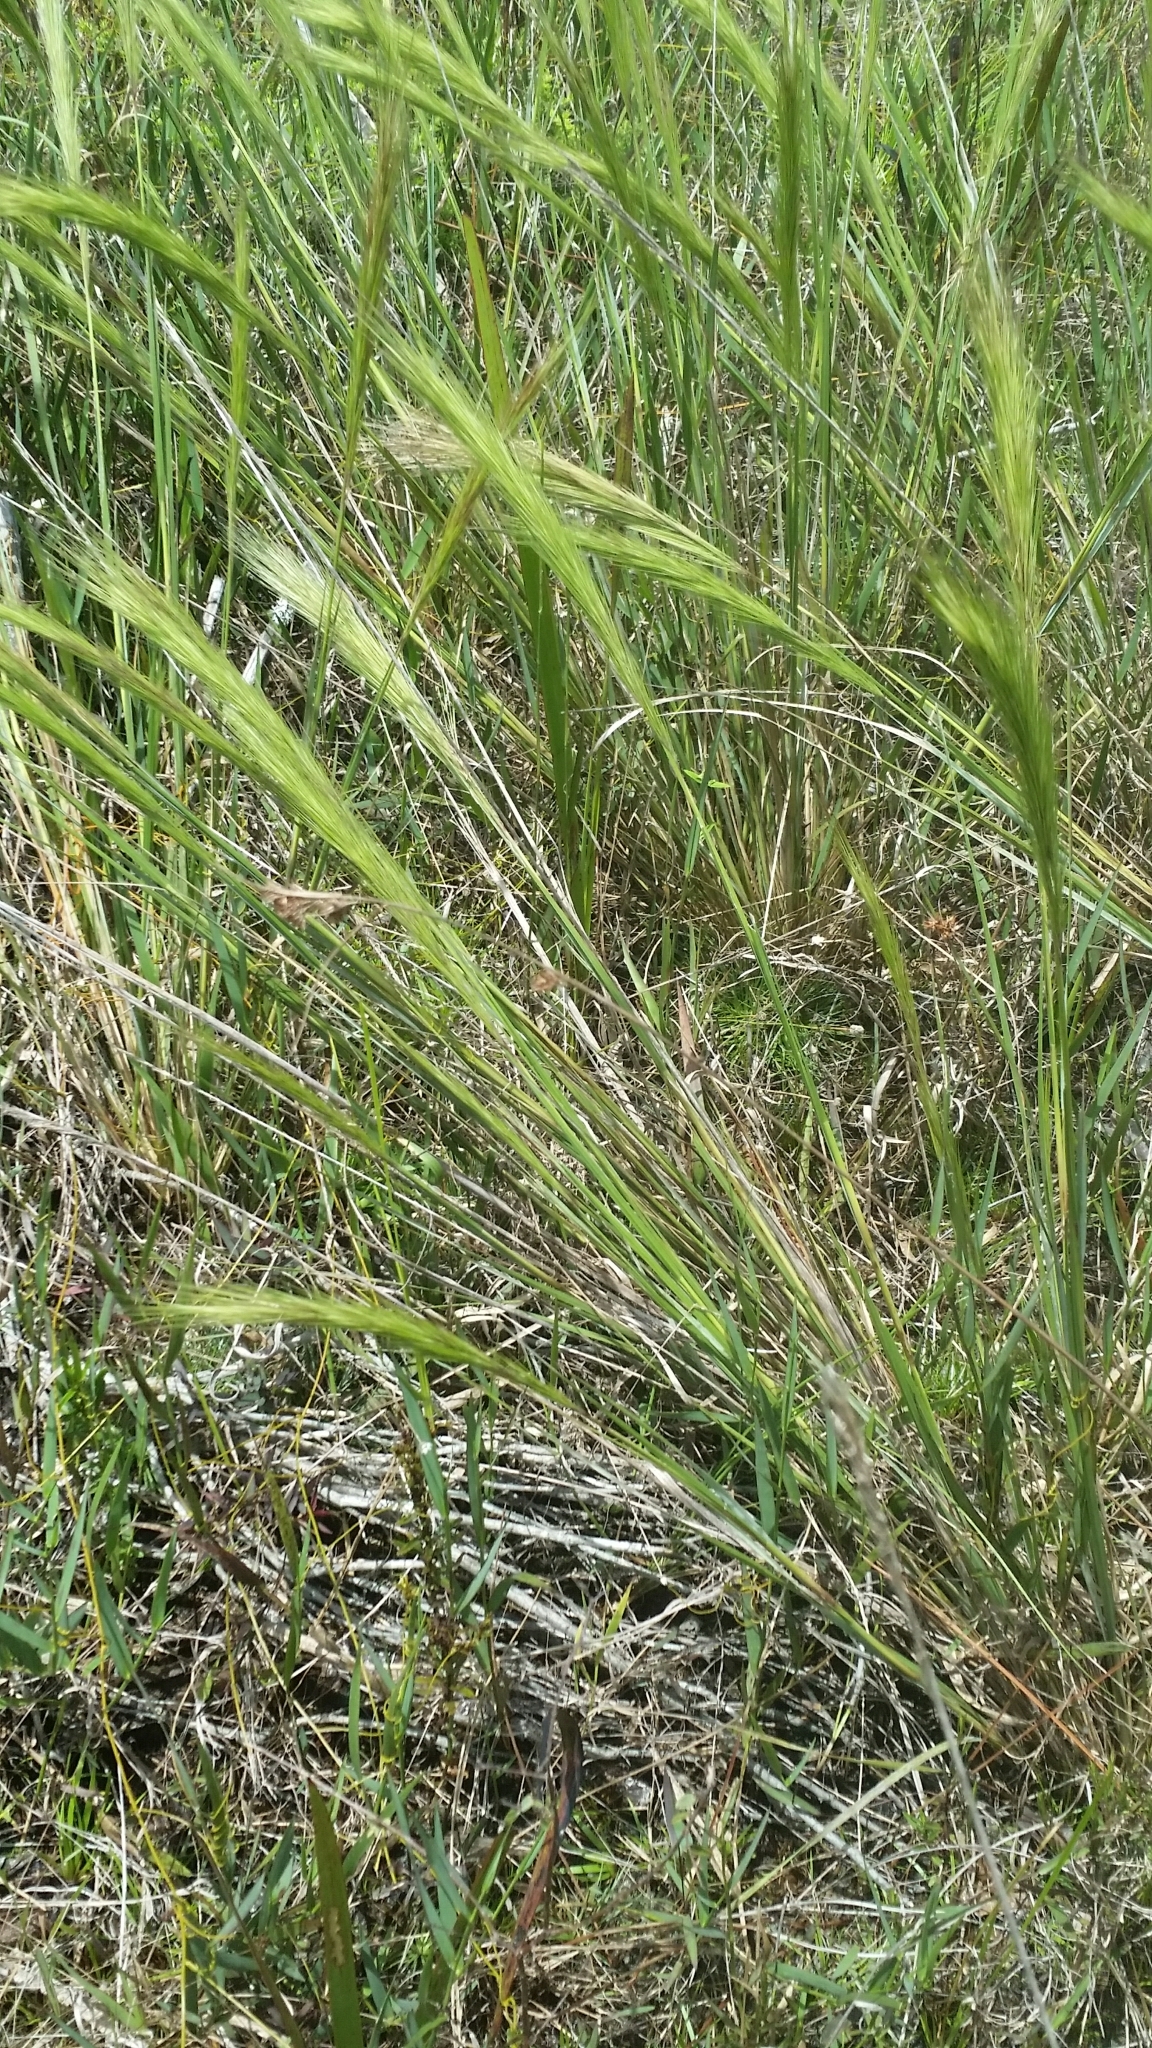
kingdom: Plantae
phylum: Tracheophyta
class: Liliopsida
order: Poales
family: Poaceae
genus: Aristida
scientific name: Aristida spiciformis
